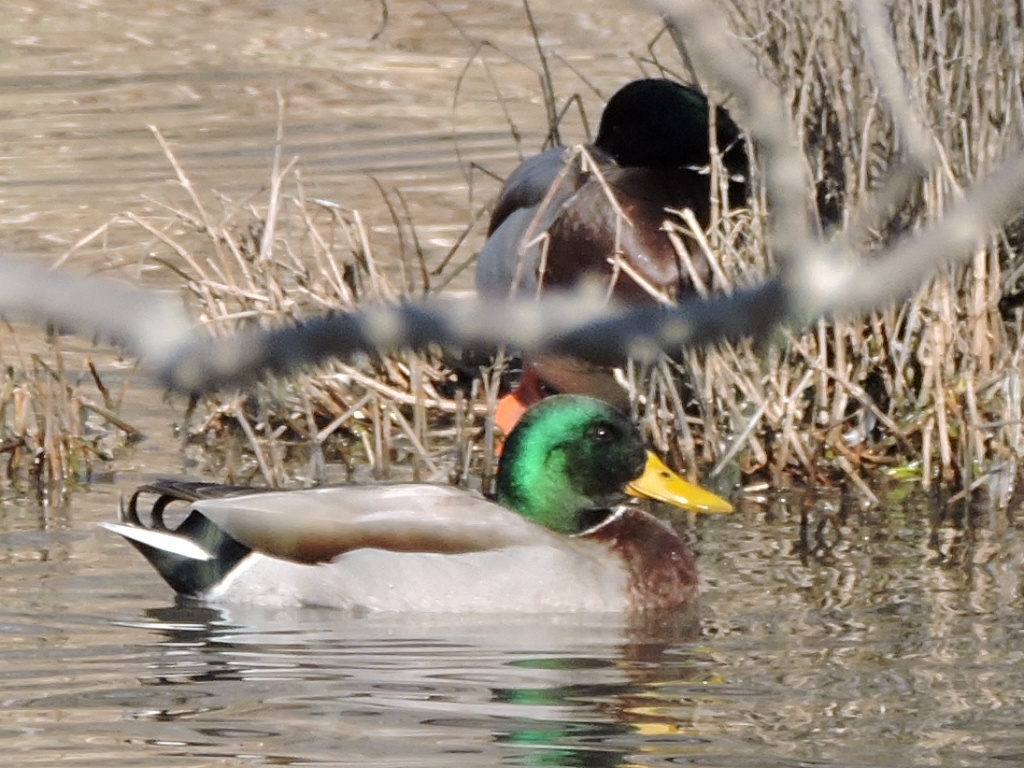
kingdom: Animalia
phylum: Chordata
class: Aves
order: Anseriformes
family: Anatidae
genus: Anas
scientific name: Anas platyrhynchos
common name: Mallard
